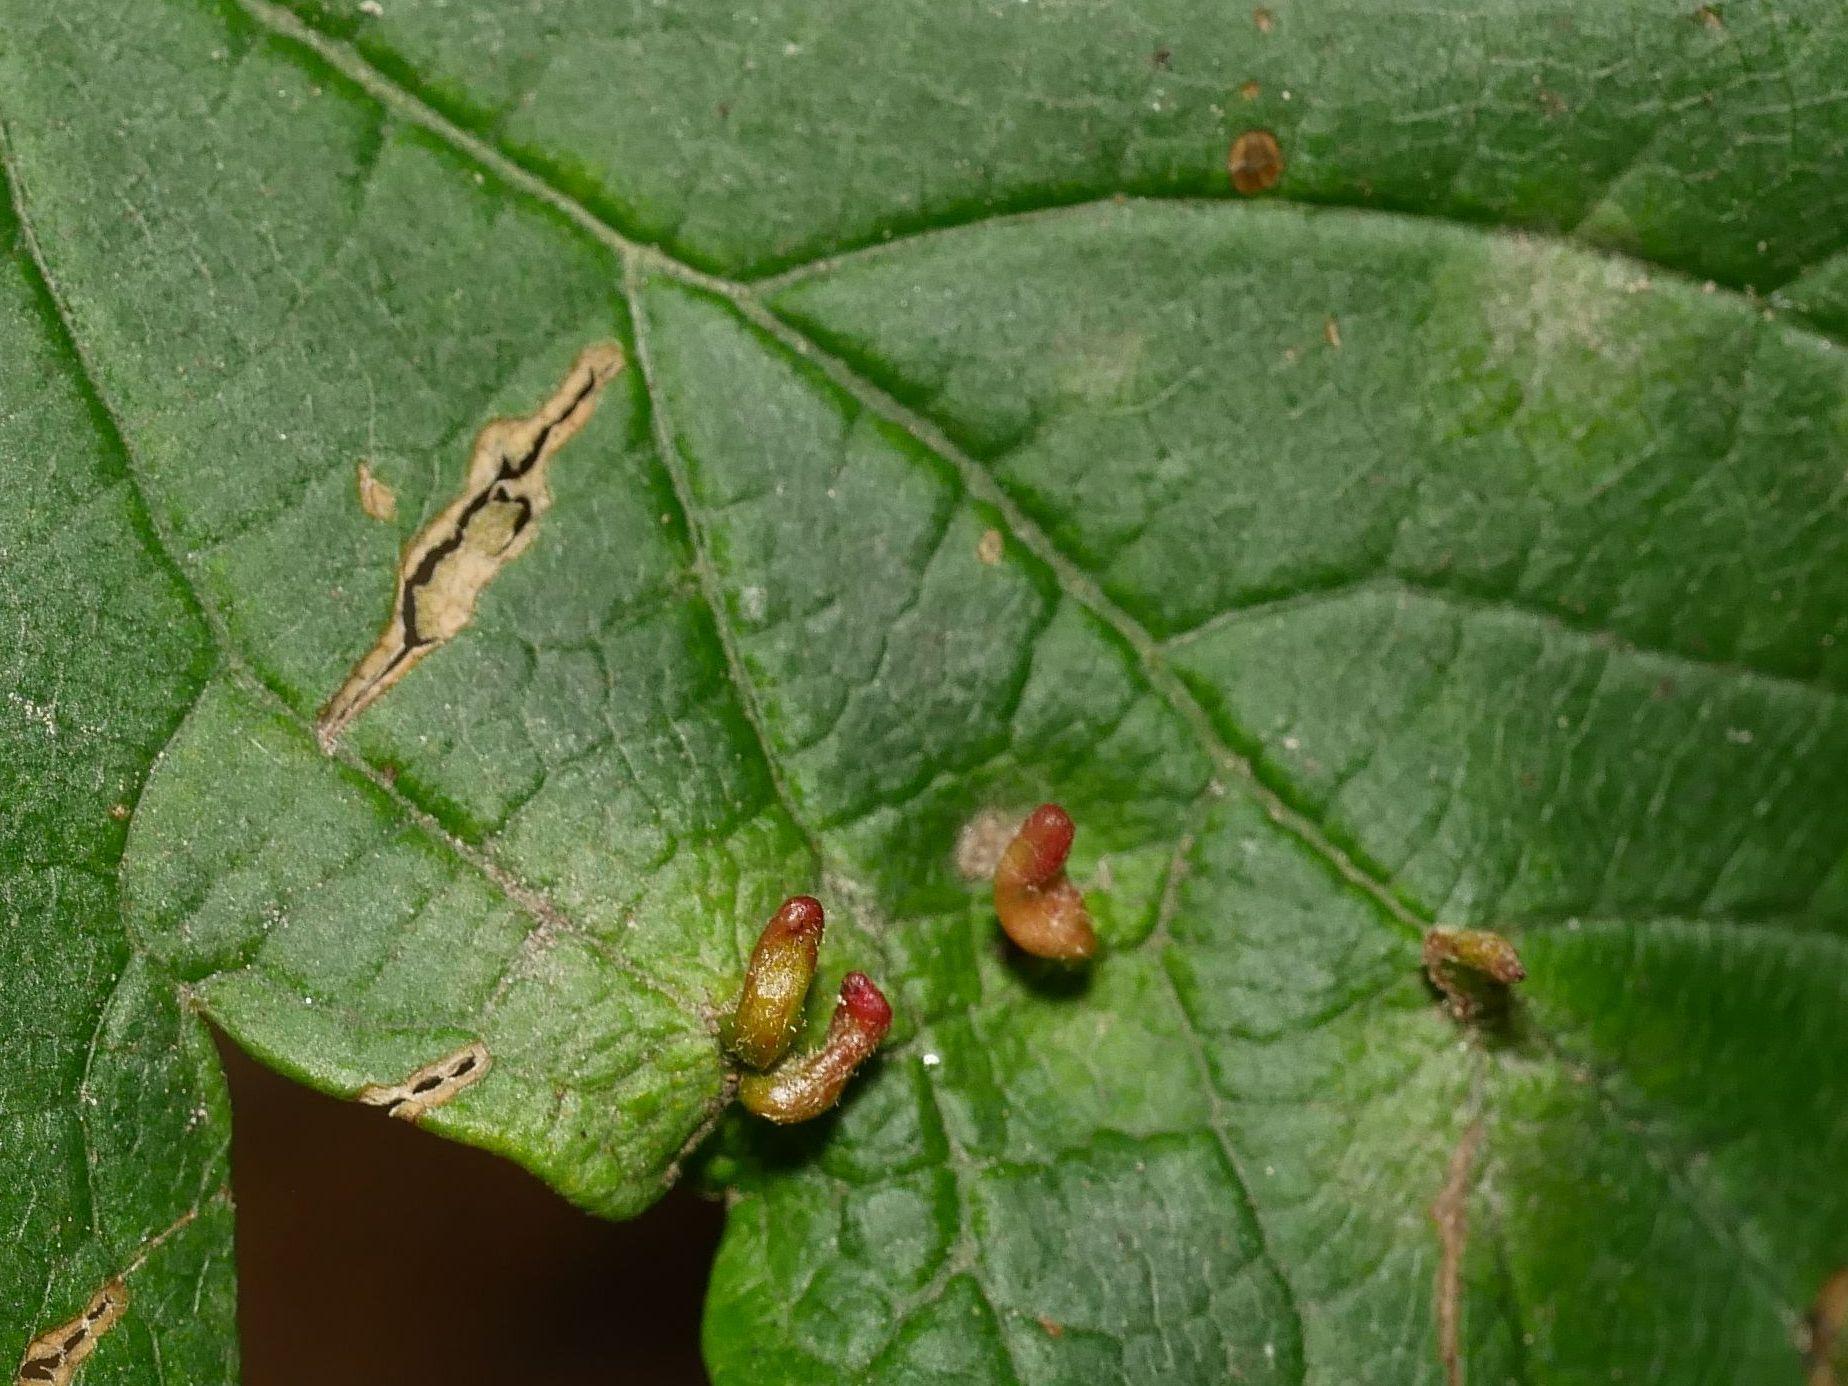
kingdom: Animalia
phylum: Arthropoda
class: Arachnida
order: Trombidiformes
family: Eriophyidae
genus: Aceria
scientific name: Aceria macrorhynchus
